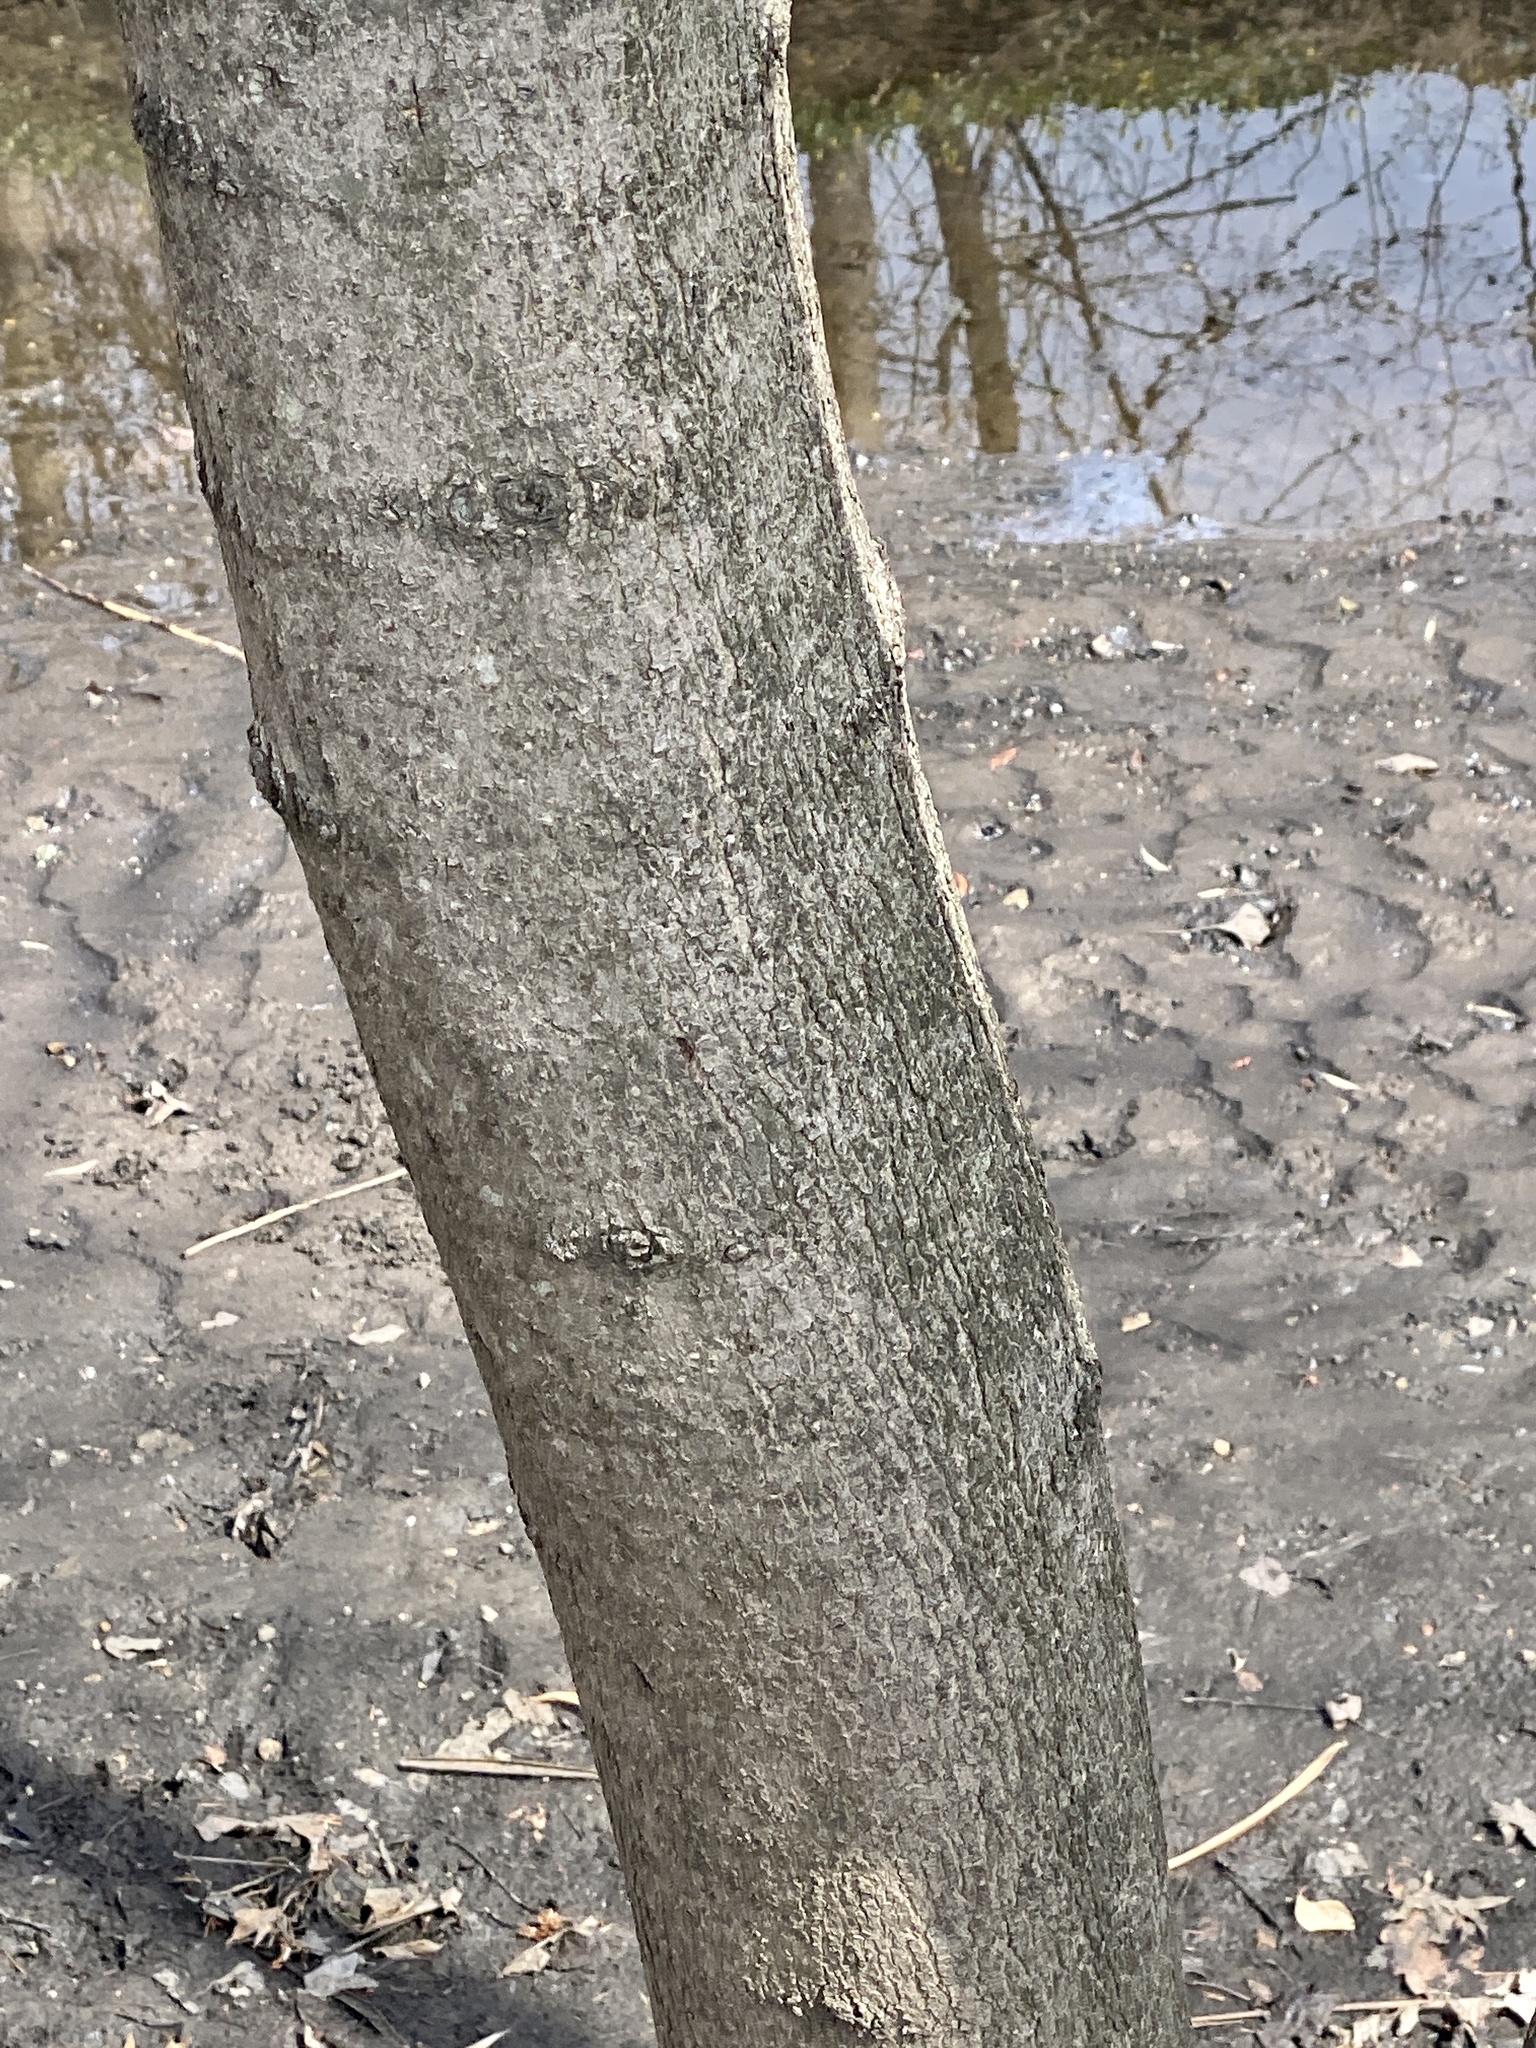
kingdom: Plantae
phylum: Tracheophyta
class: Magnoliopsida
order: Sapindales
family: Sapindaceae
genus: Acer
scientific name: Acer platanoides
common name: Norway maple
